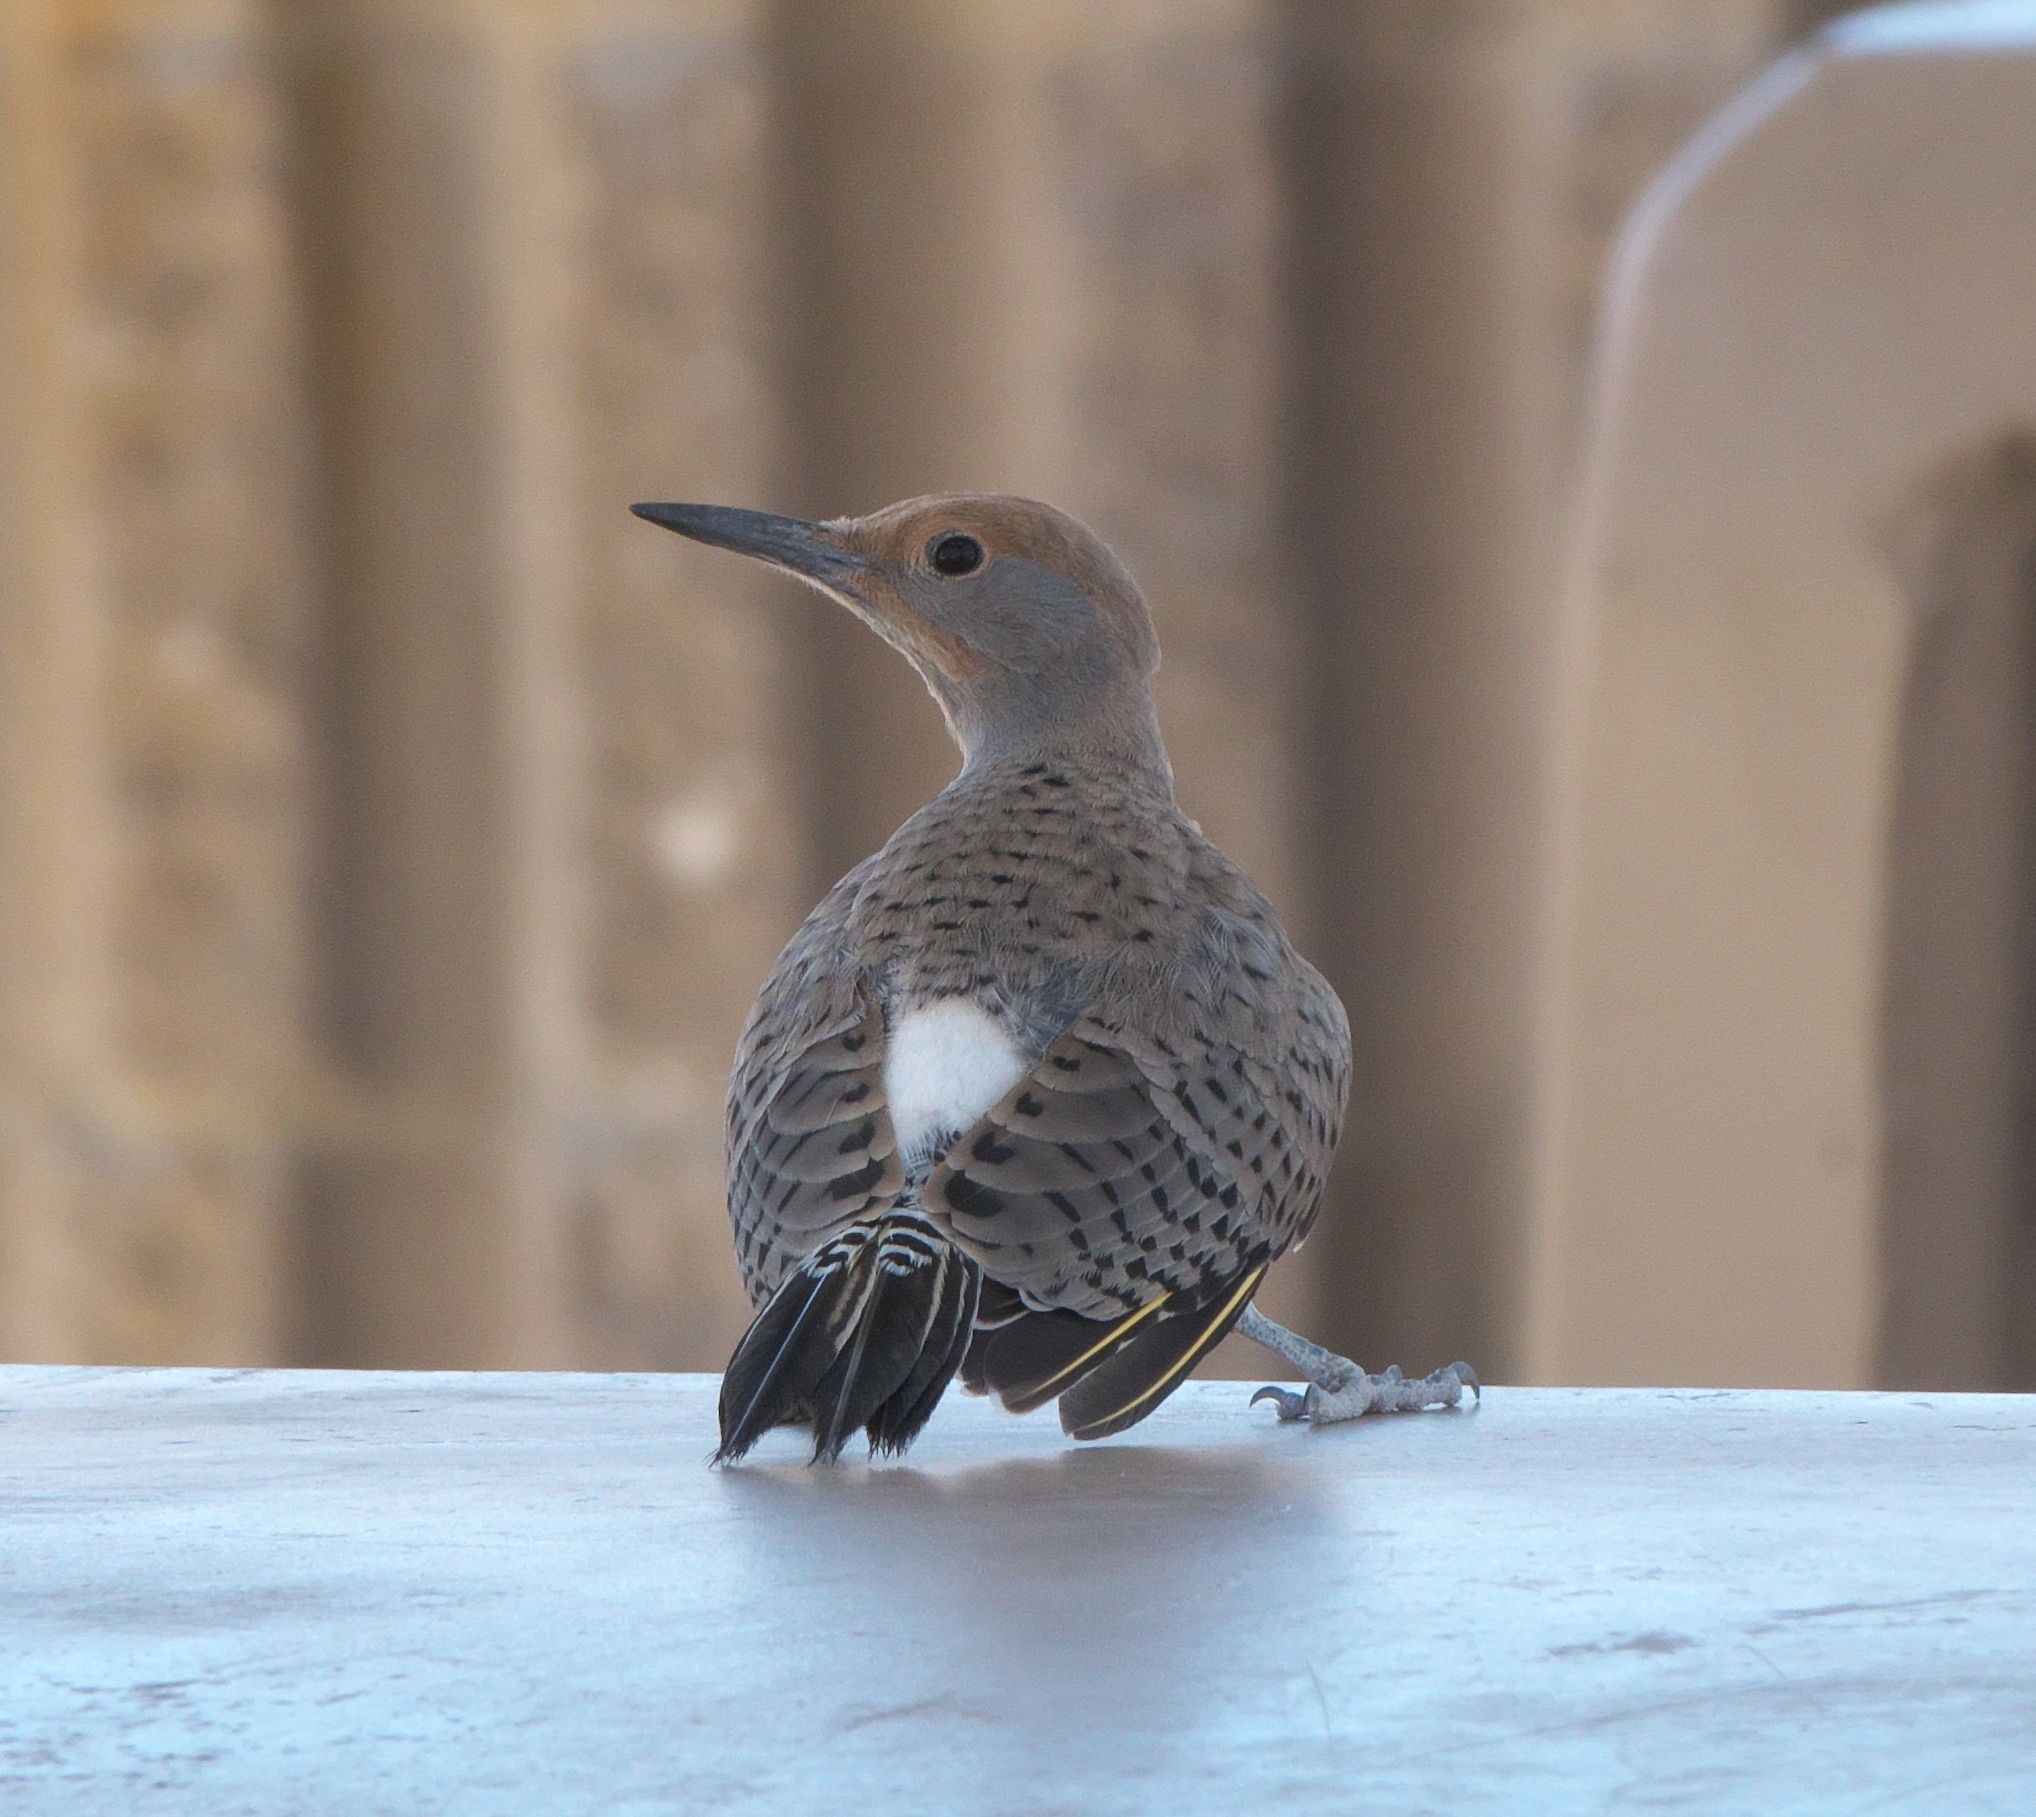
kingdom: Animalia
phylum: Chordata
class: Aves
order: Piciformes
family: Picidae
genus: Colaptes
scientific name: Colaptes chrysoides
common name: Gilded flicker
